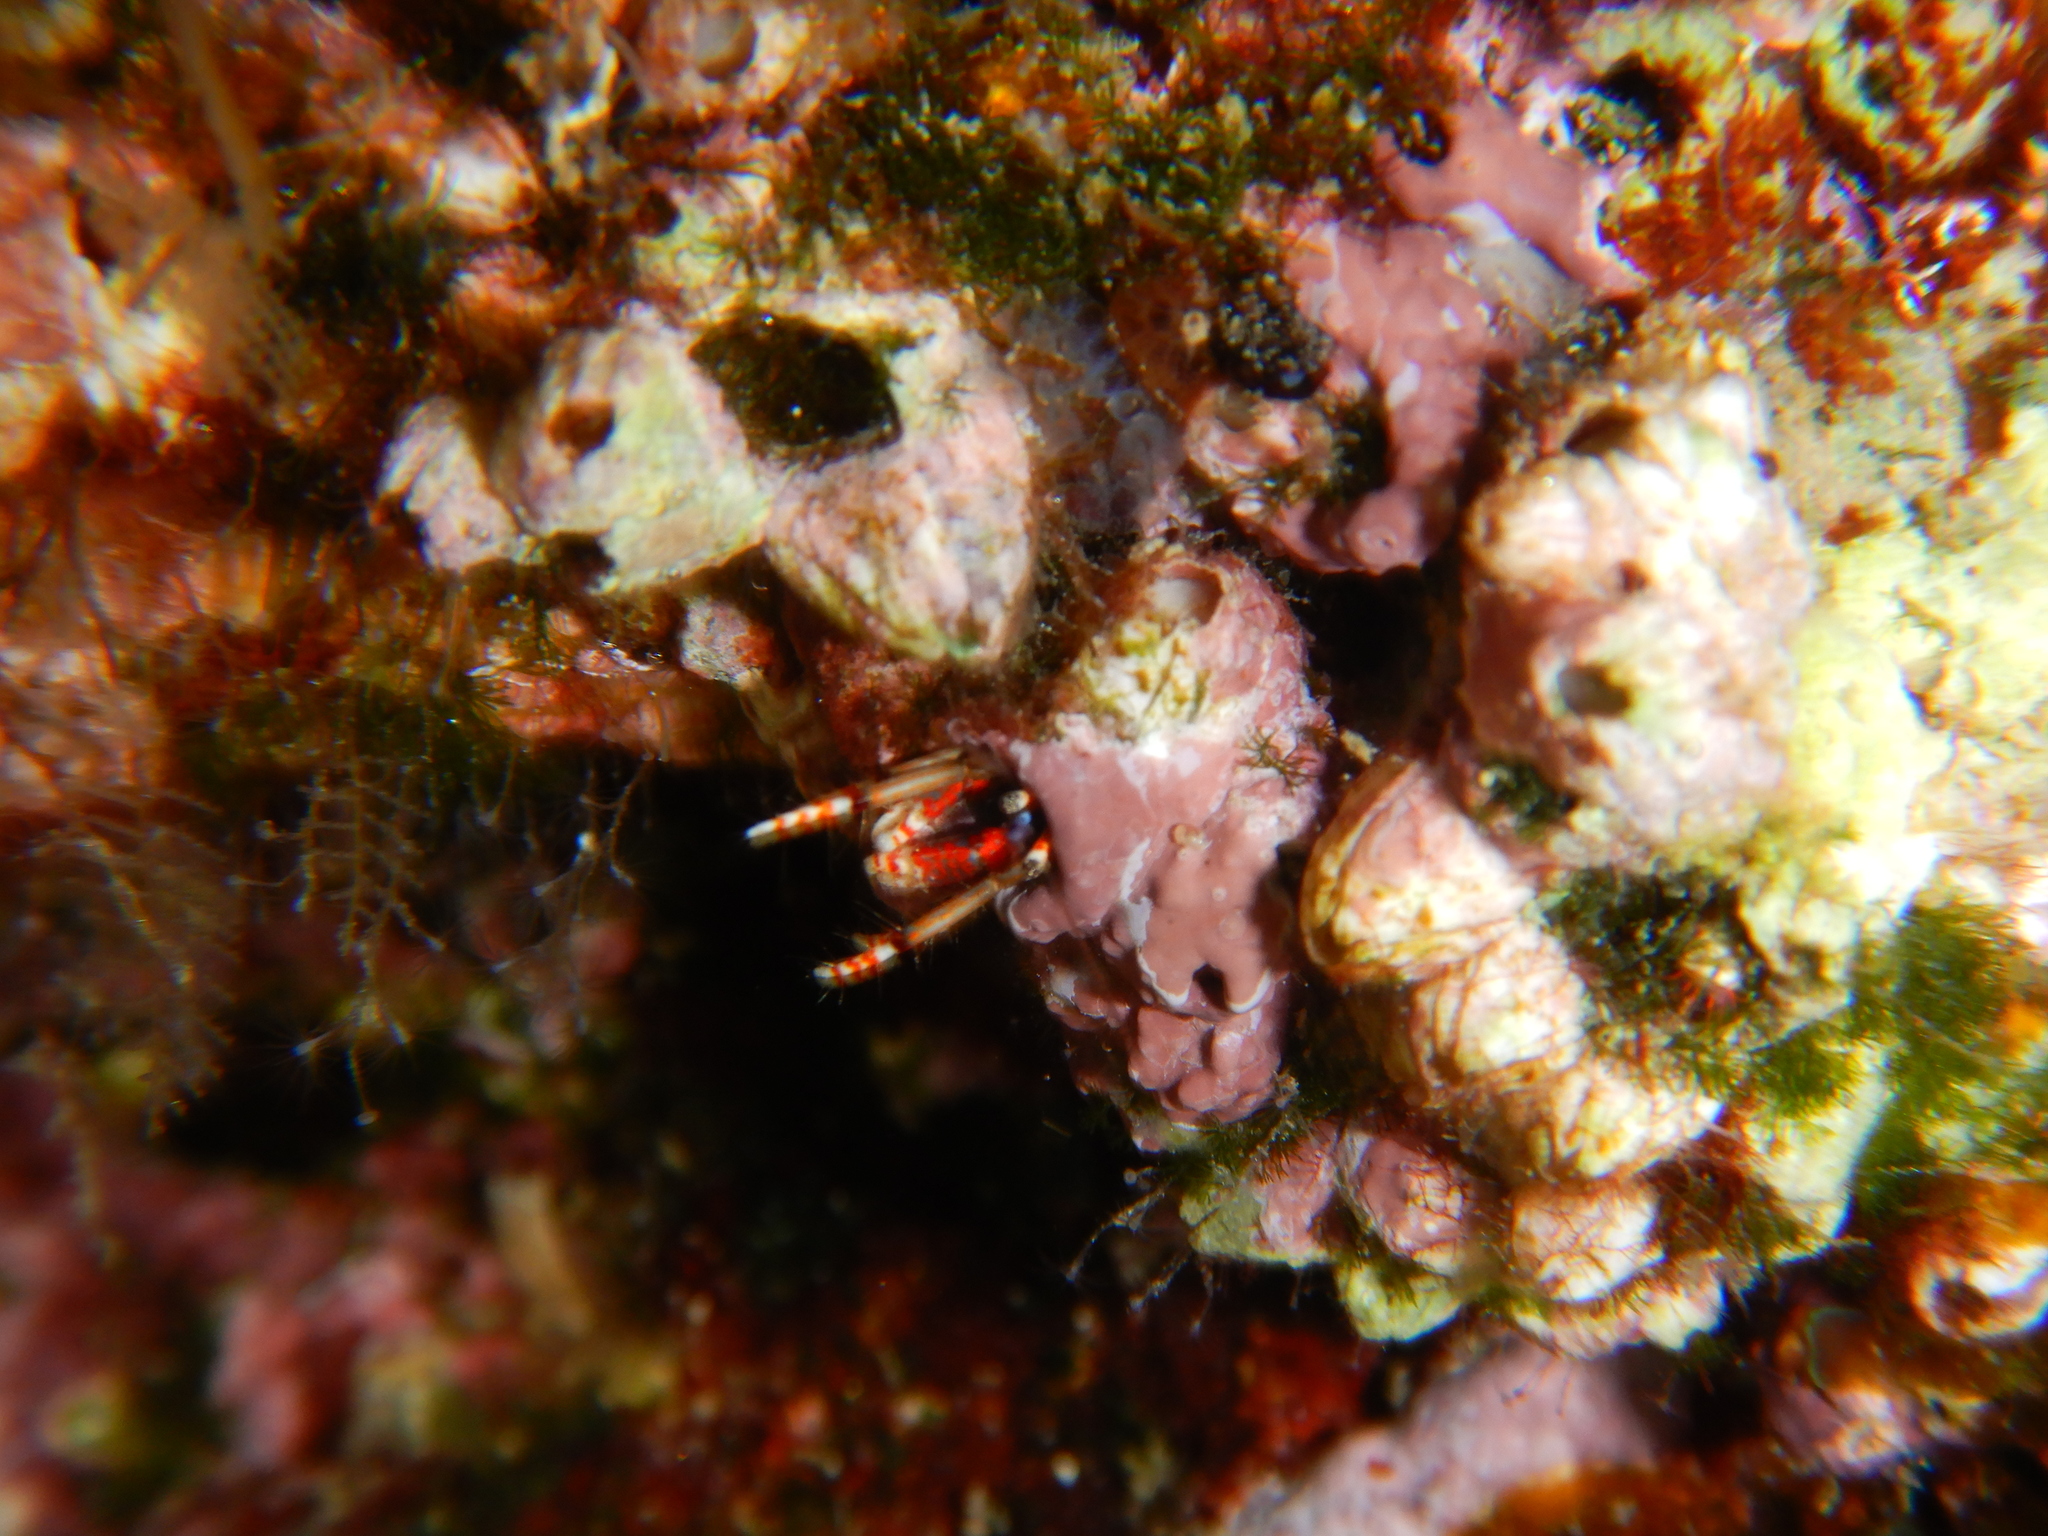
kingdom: Animalia
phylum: Arthropoda
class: Malacostraca
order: Decapoda
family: Diogenidae
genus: Calcinus
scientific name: Calcinus tubularis
